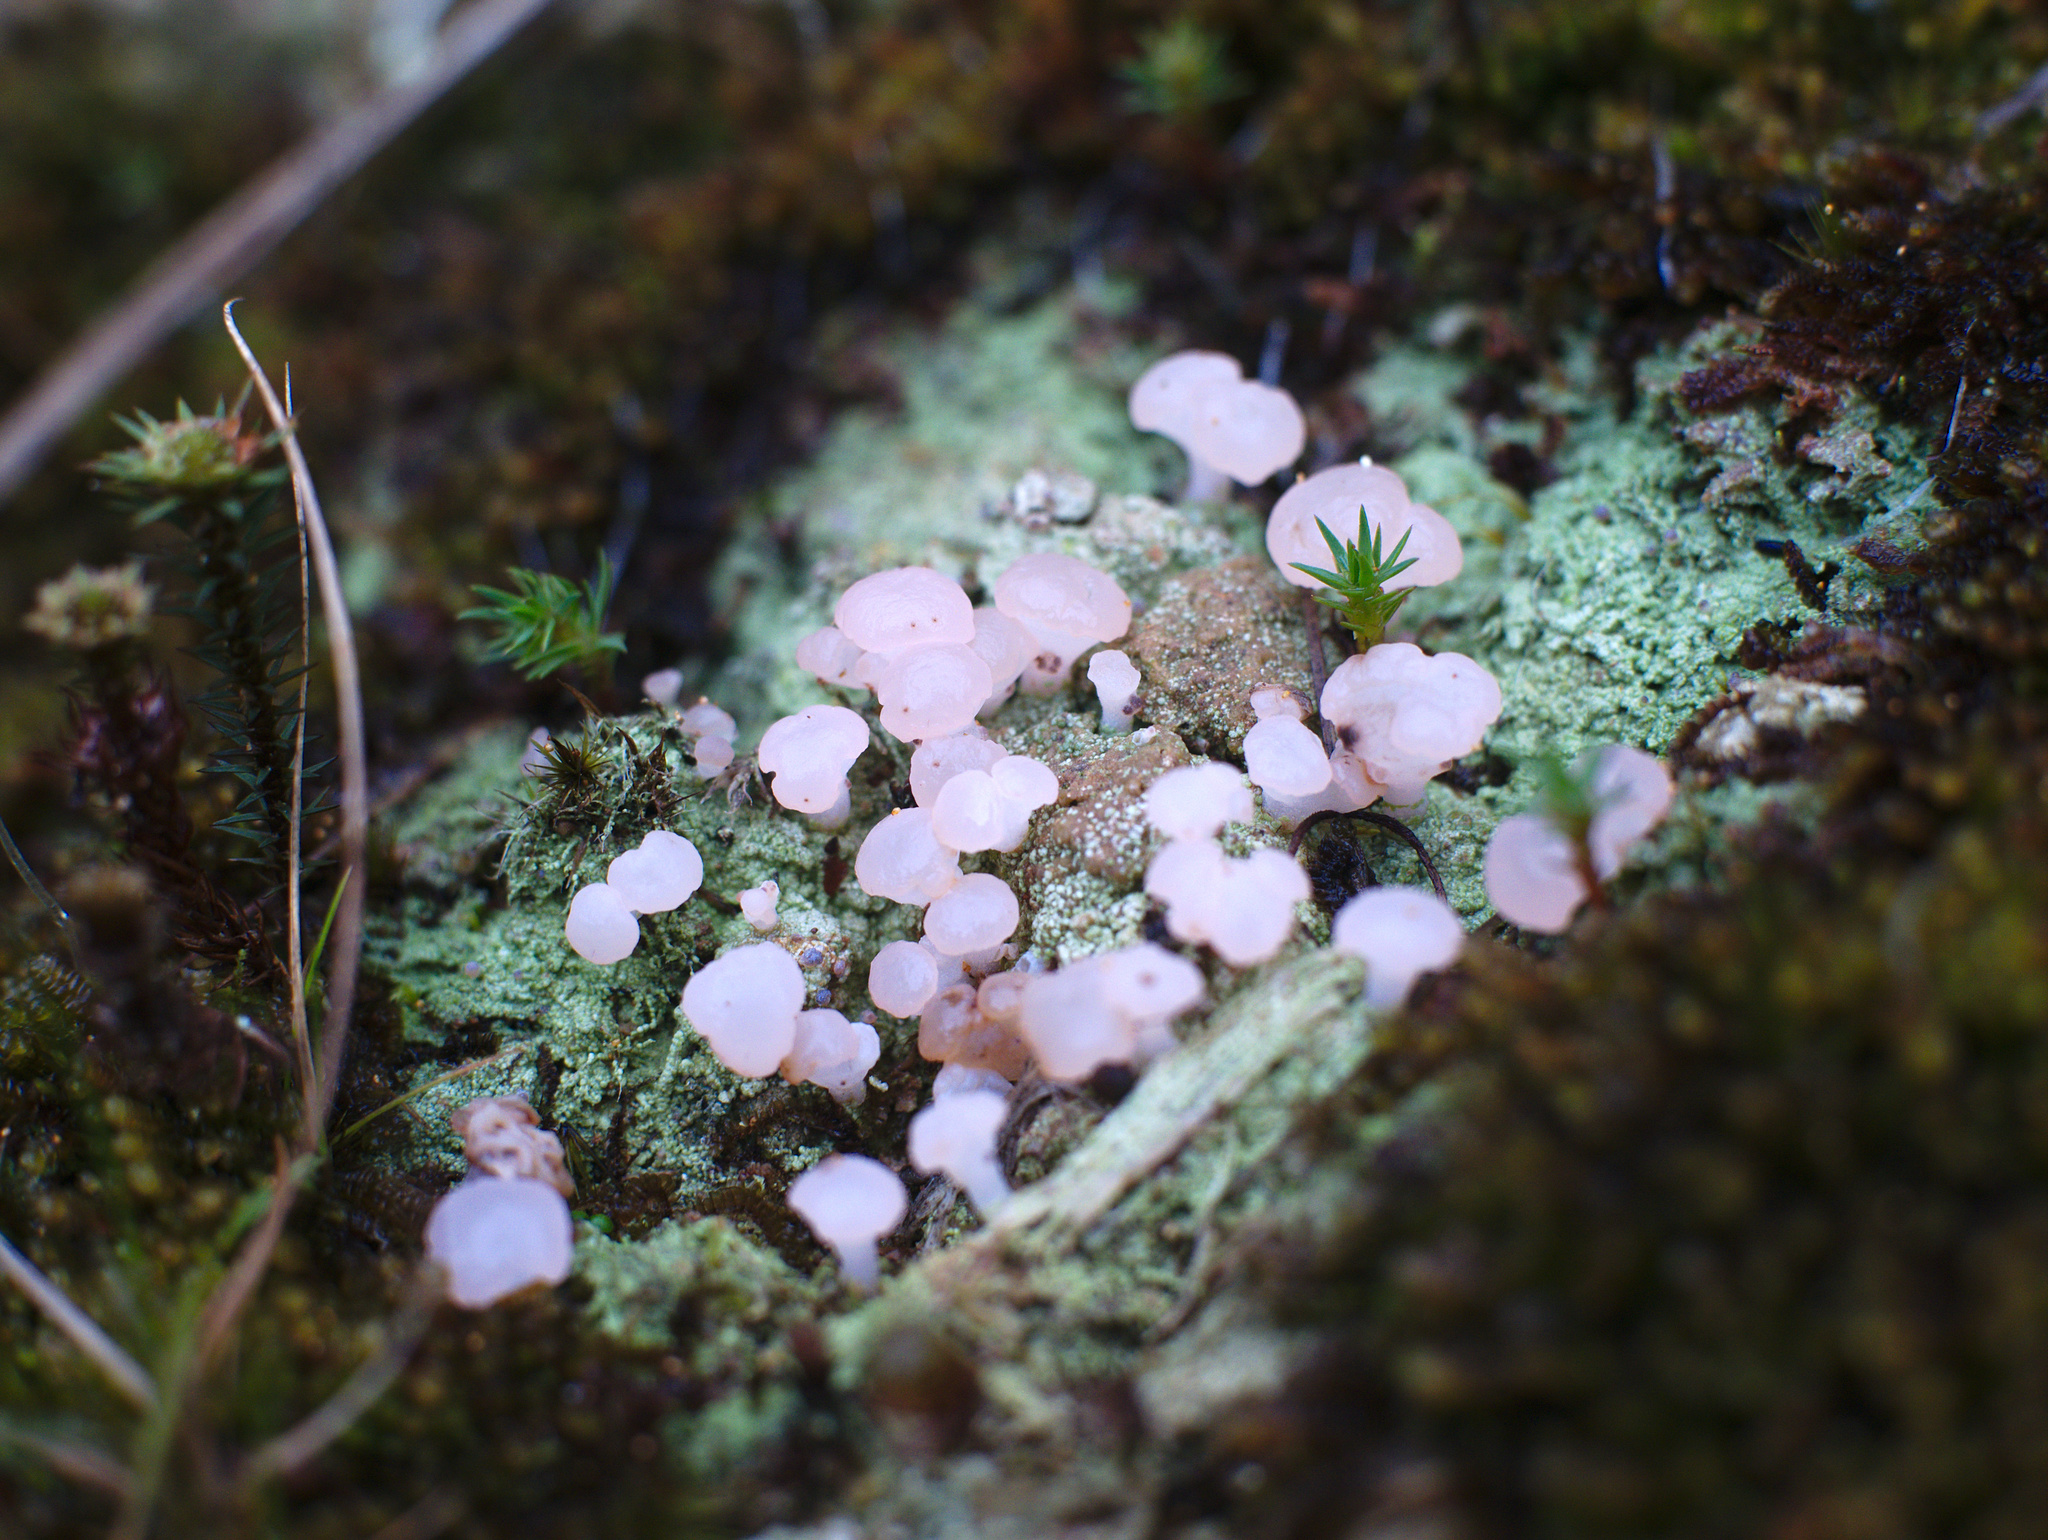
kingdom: Fungi
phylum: Ascomycota
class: Lecanoromycetes
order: Baeomycetales
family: Baeomycetaceae
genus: Baeomyces
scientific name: Baeomyces heteromorphus
